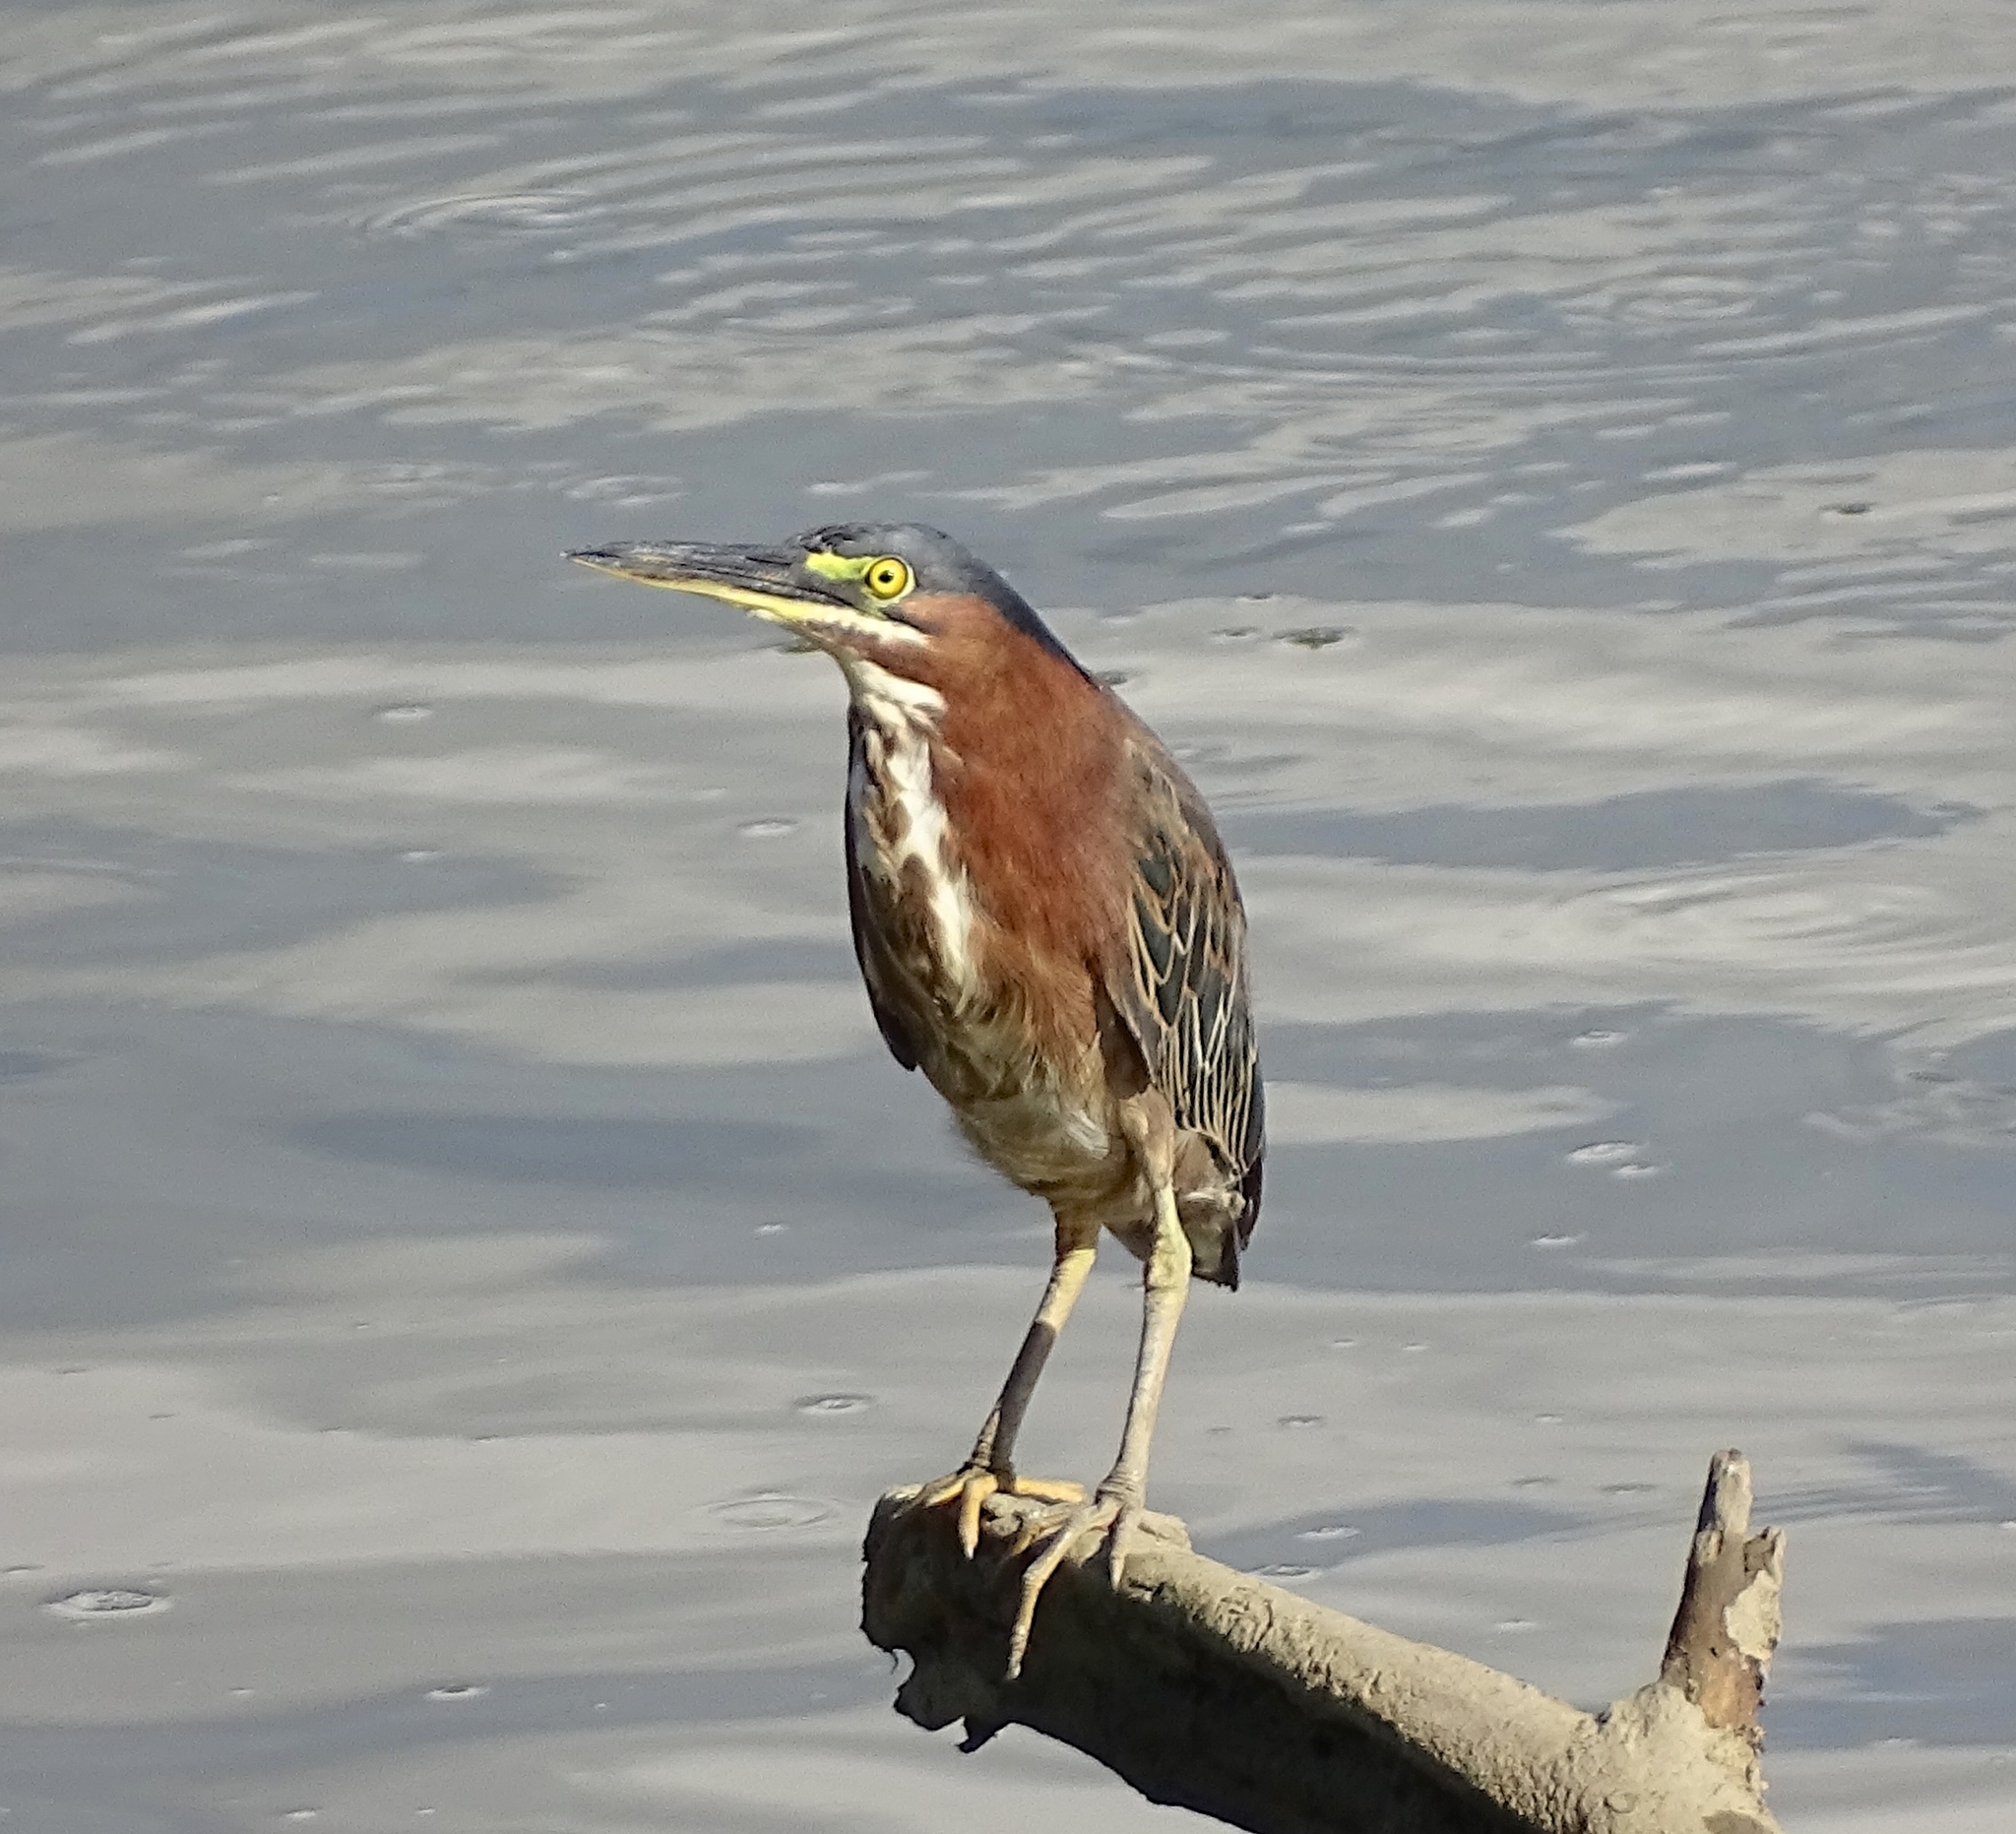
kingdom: Animalia
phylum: Chordata
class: Aves
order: Pelecaniformes
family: Ardeidae
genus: Butorides
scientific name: Butorides virescens
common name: Green heron
